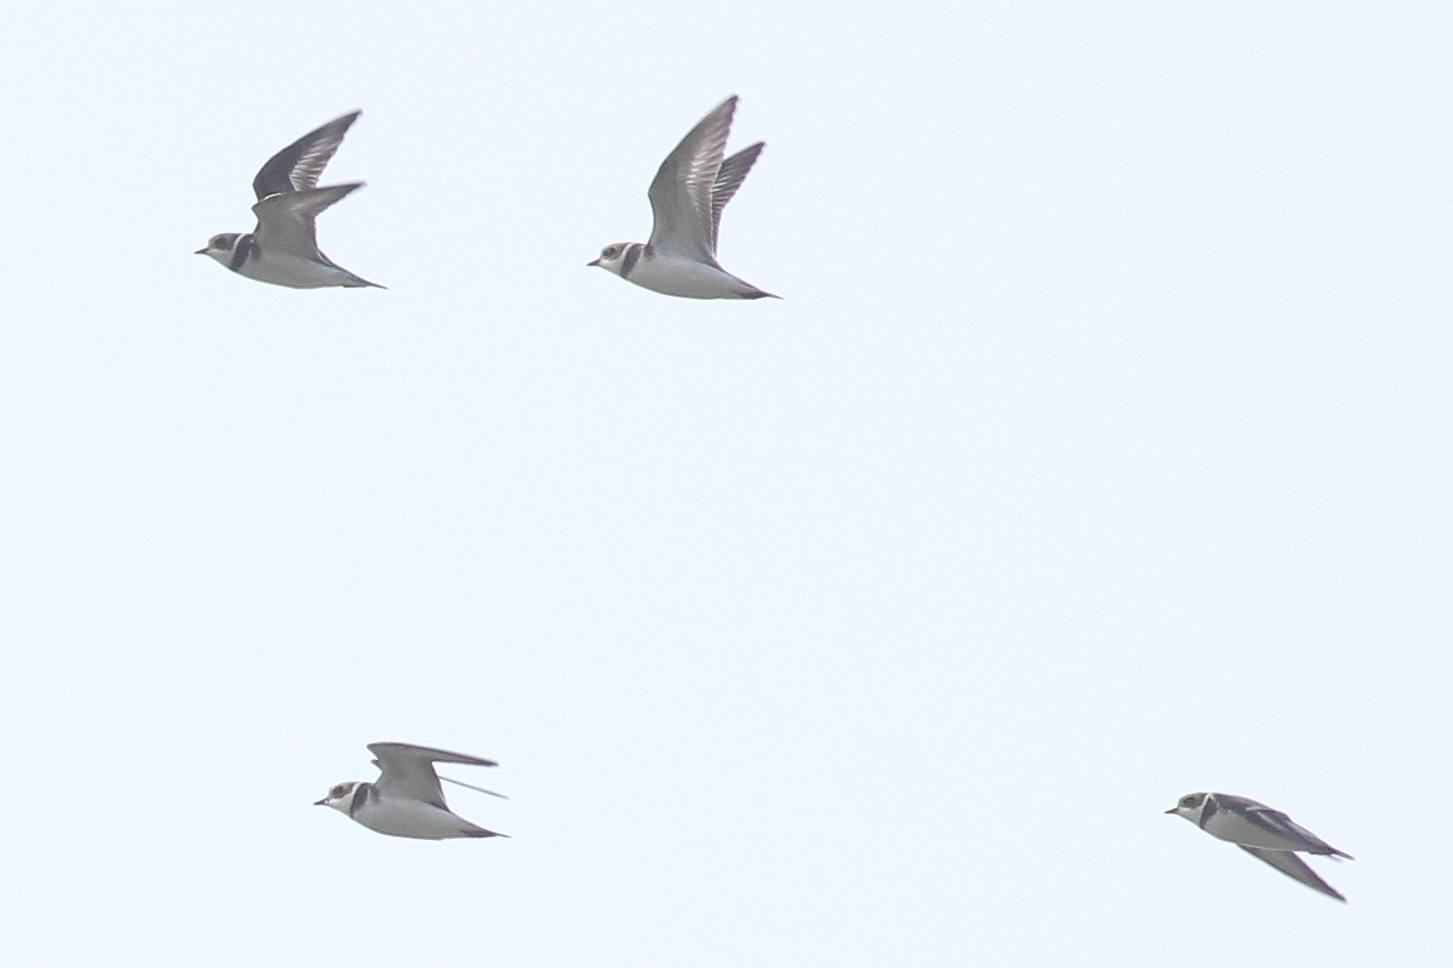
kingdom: Animalia
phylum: Chordata
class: Aves
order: Charadriiformes
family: Charadriidae
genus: Charadrius
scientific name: Charadrius semipalmatus
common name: Semipalmated plover
